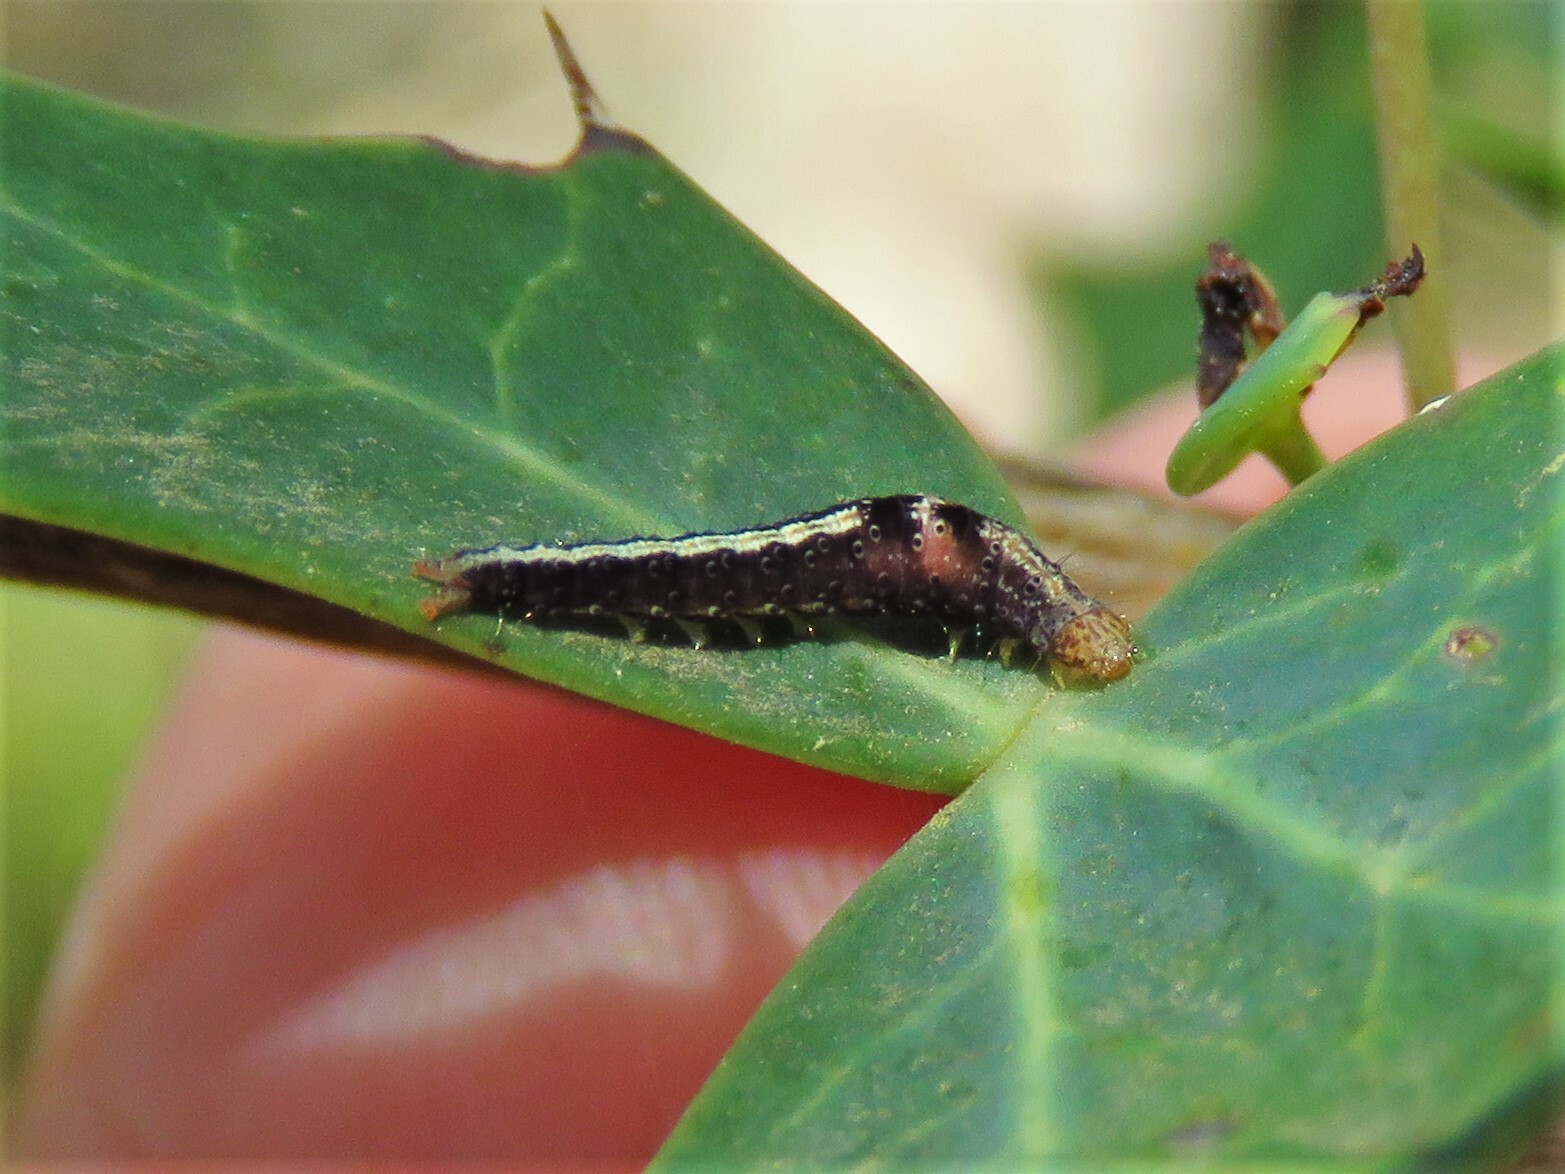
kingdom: Animalia
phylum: Arthropoda
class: Insecta
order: Lepidoptera
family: Ypsolophidae
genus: Ypsolopha
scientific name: Ypsolopha
